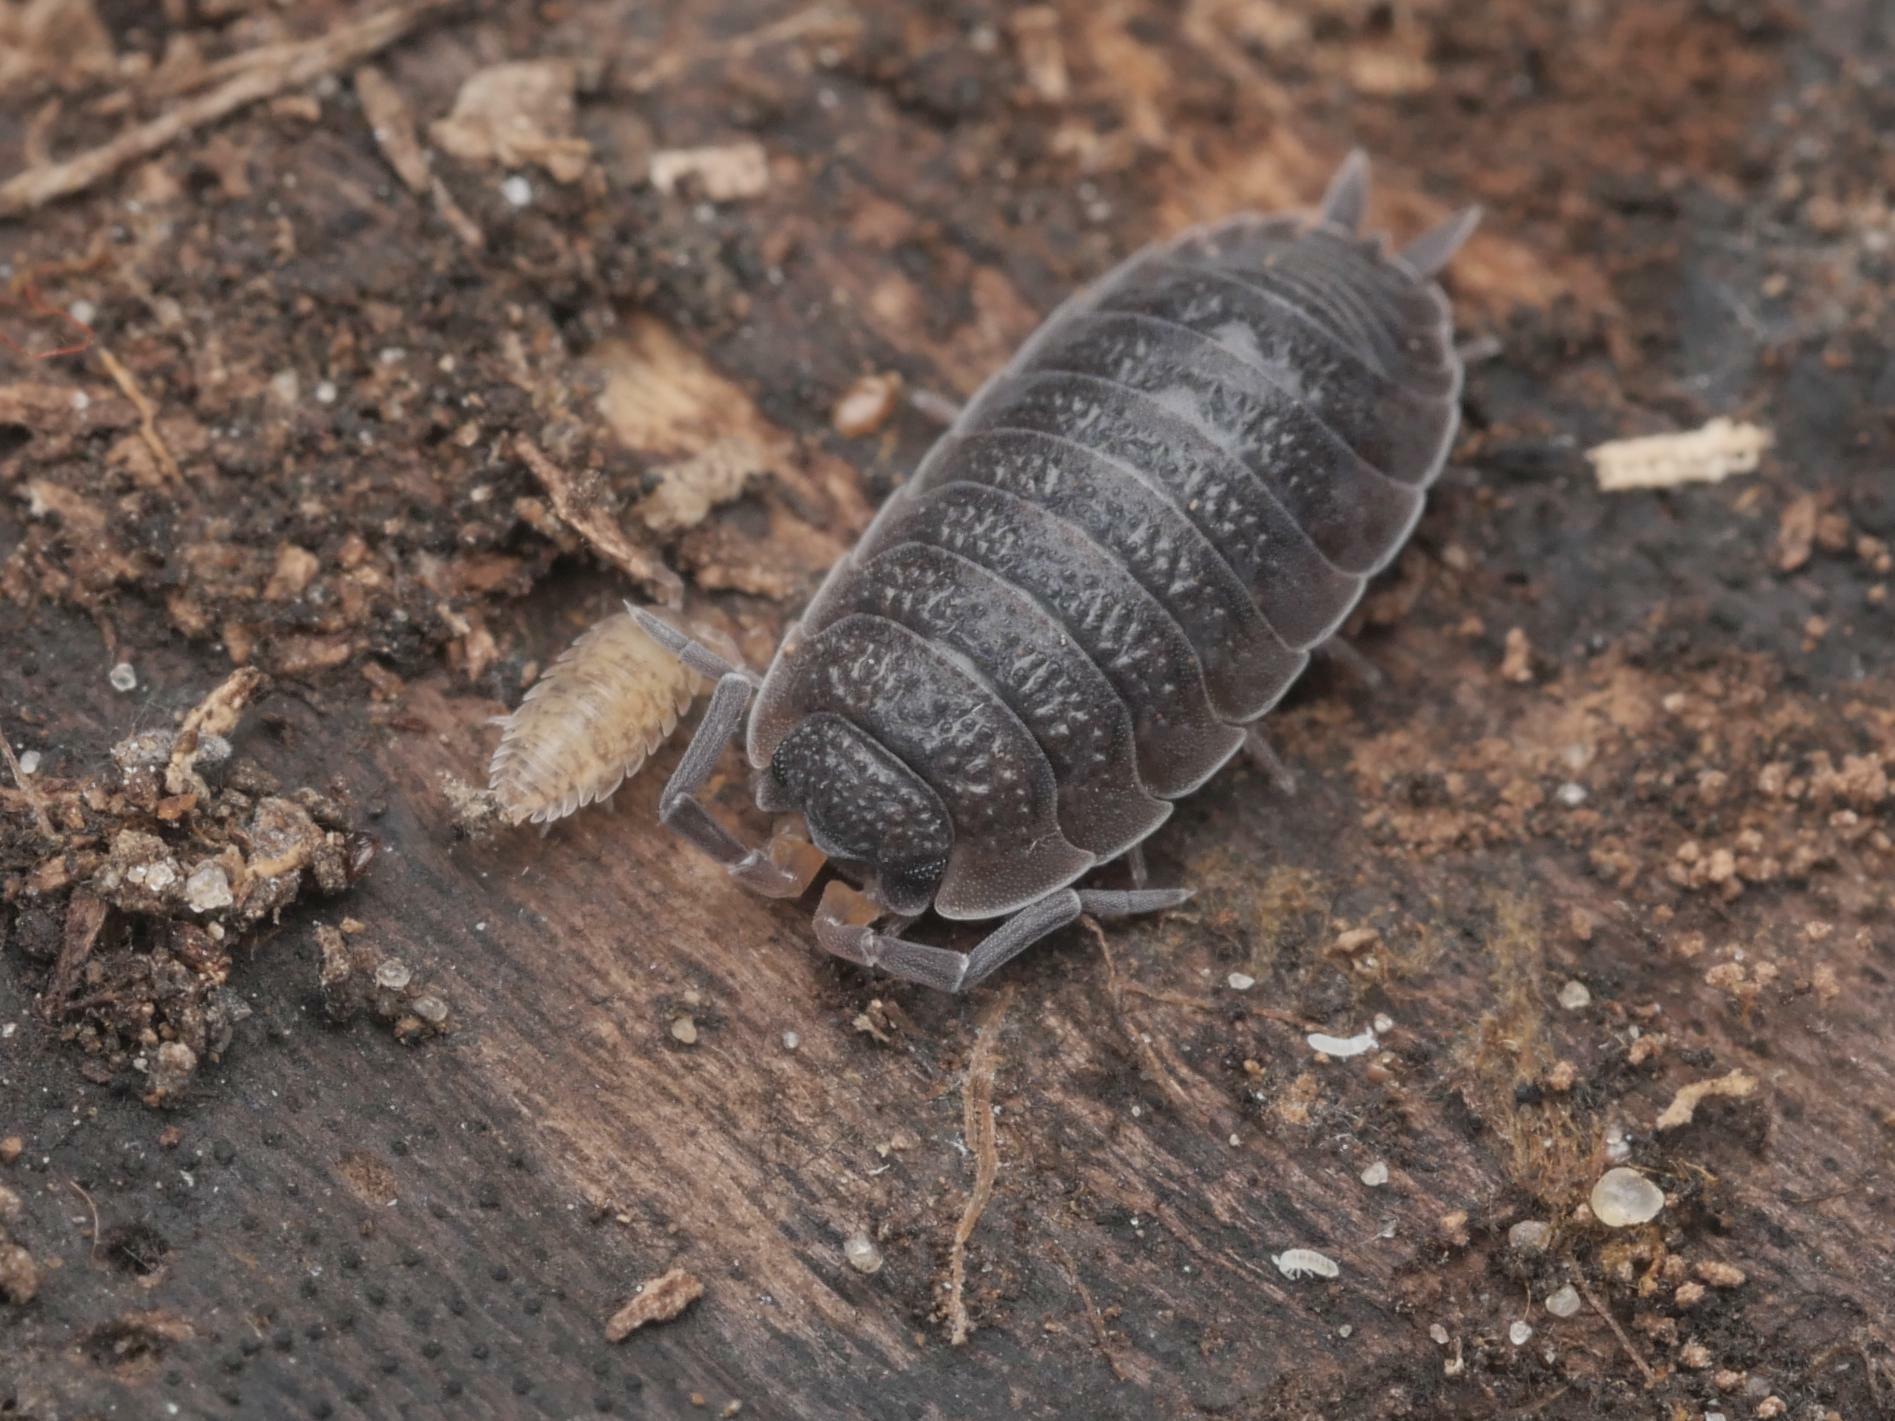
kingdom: Animalia
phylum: Arthropoda
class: Malacostraca
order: Isopoda
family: Porcellionidae
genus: Porcellio
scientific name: Porcellio scaber
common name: Common rough woodlouse
